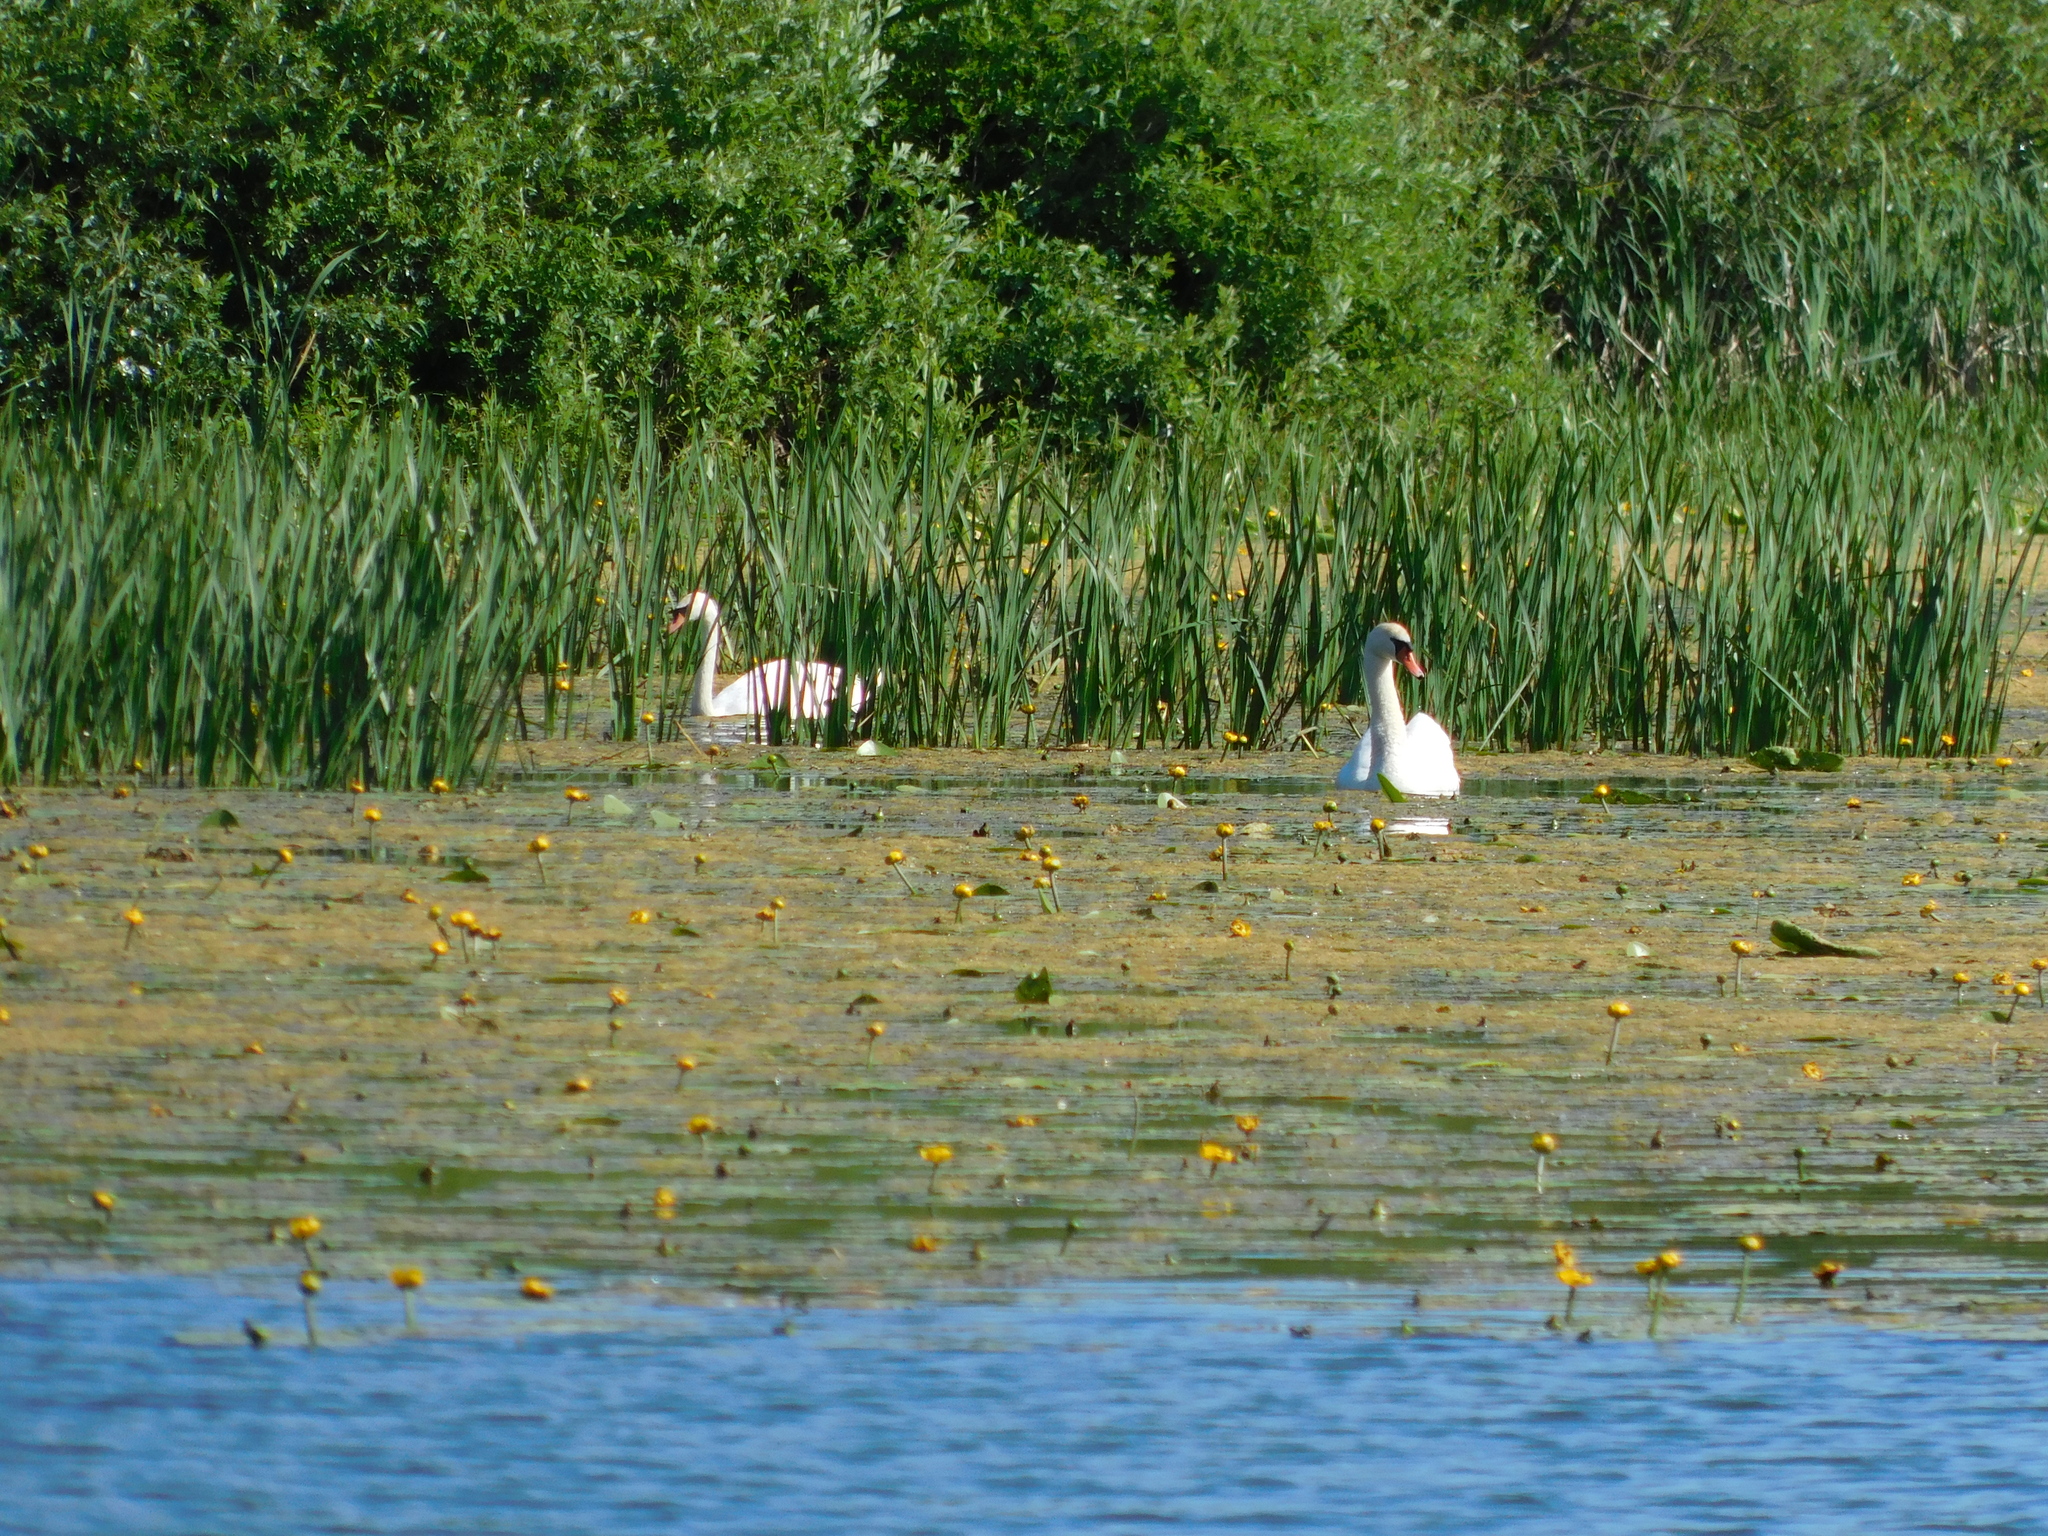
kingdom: Animalia
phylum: Chordata
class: Aves
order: Anseriformes
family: Anatidae
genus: Cygnus
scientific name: Cygnus olor
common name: Mute swan
